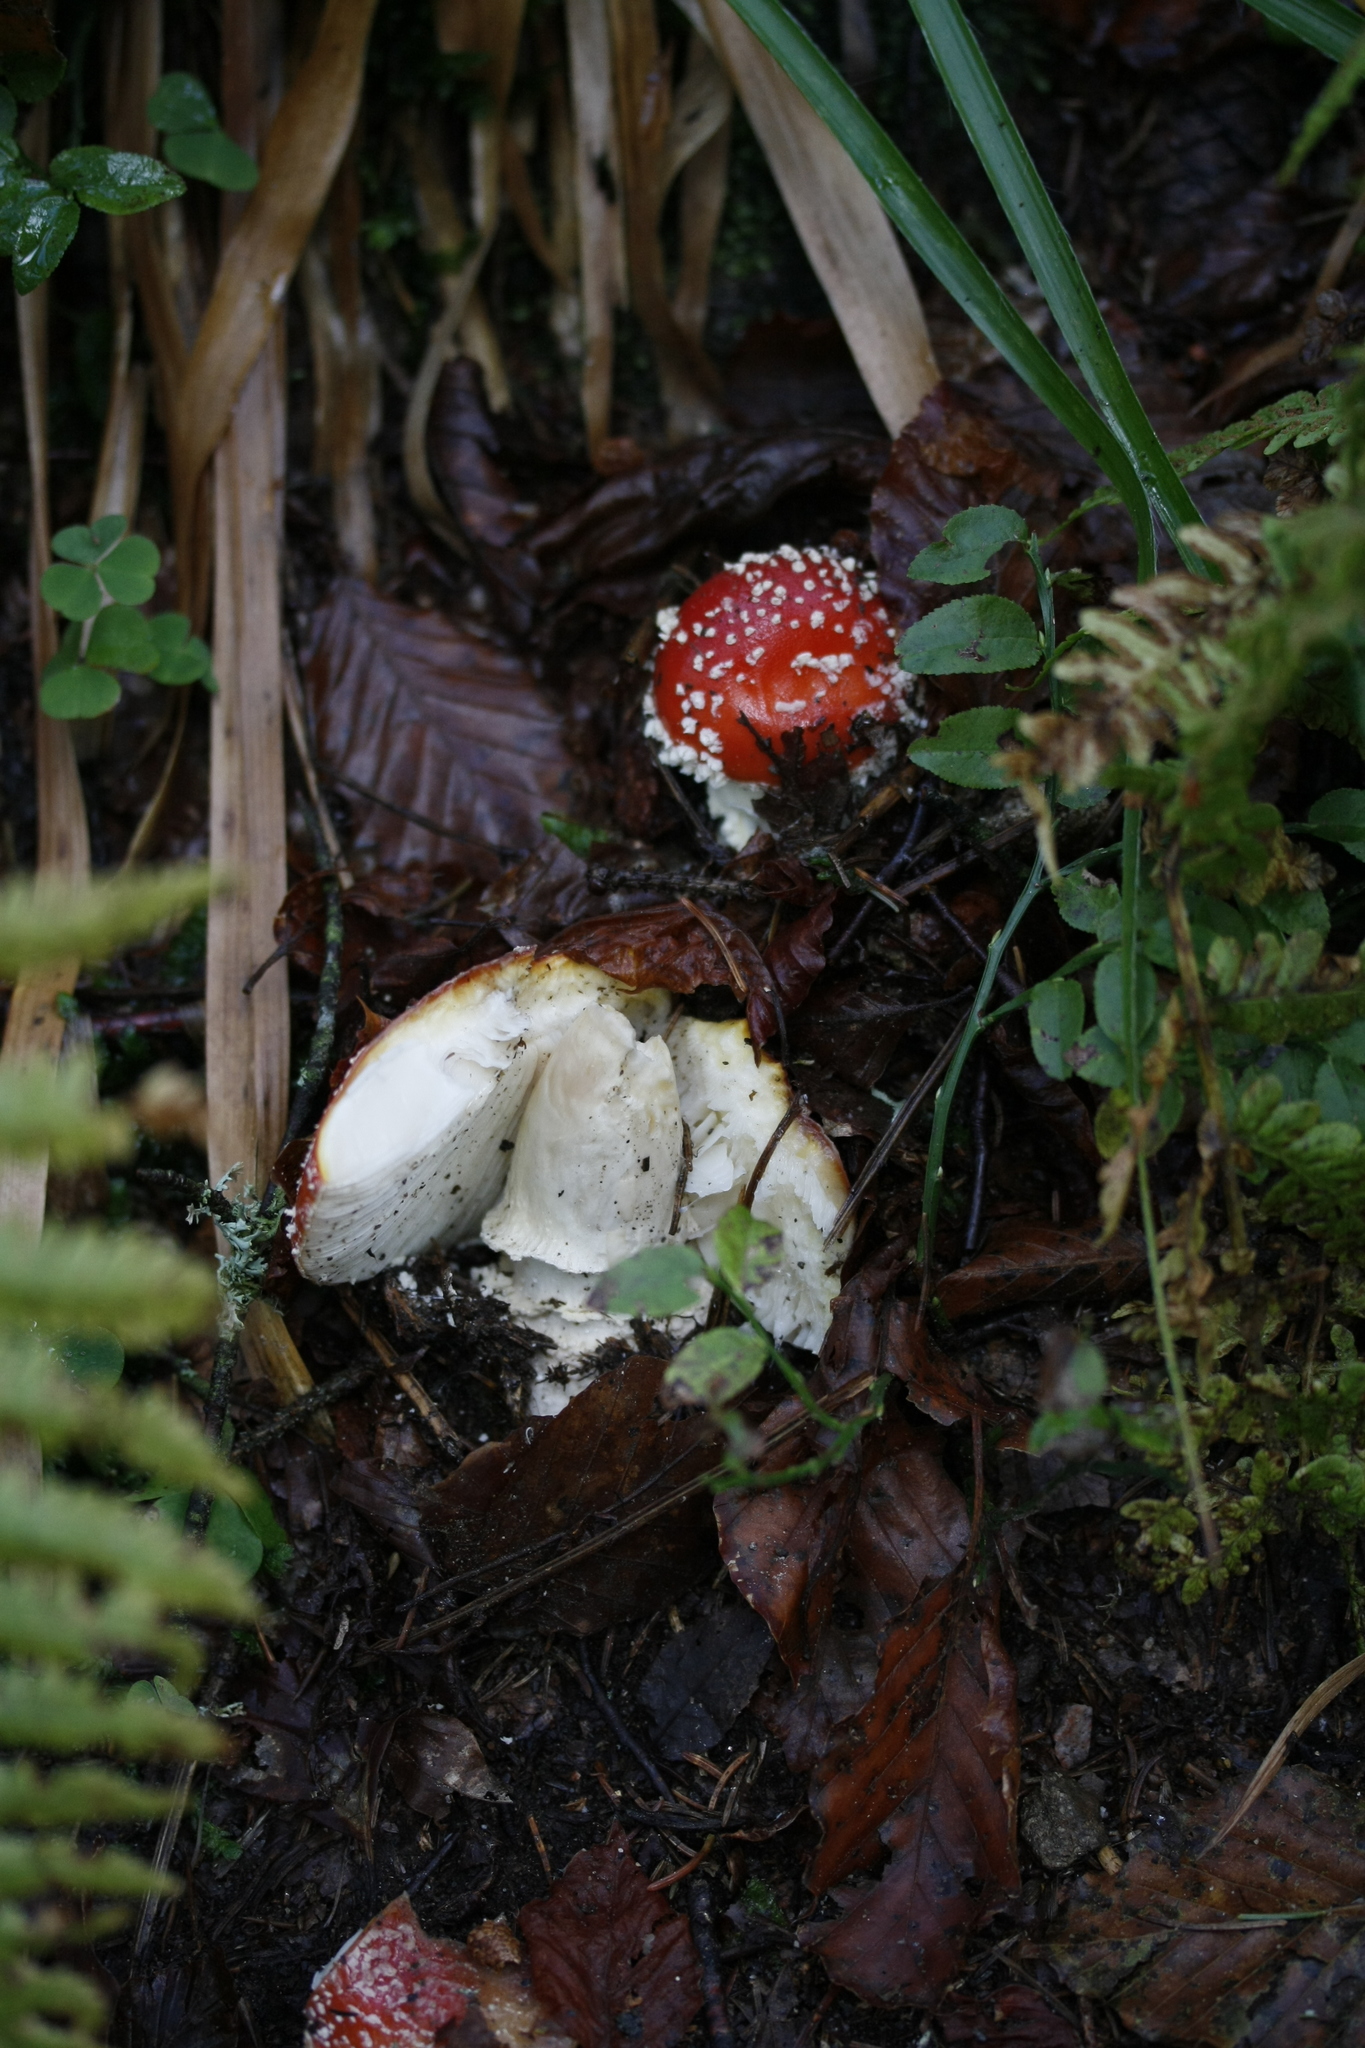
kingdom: Fungi
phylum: Basidiomycota
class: Agaricomycetes
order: Agaricales
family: Amanitaceae
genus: Amanita
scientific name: Amanita muscaria
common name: Fly agaric
